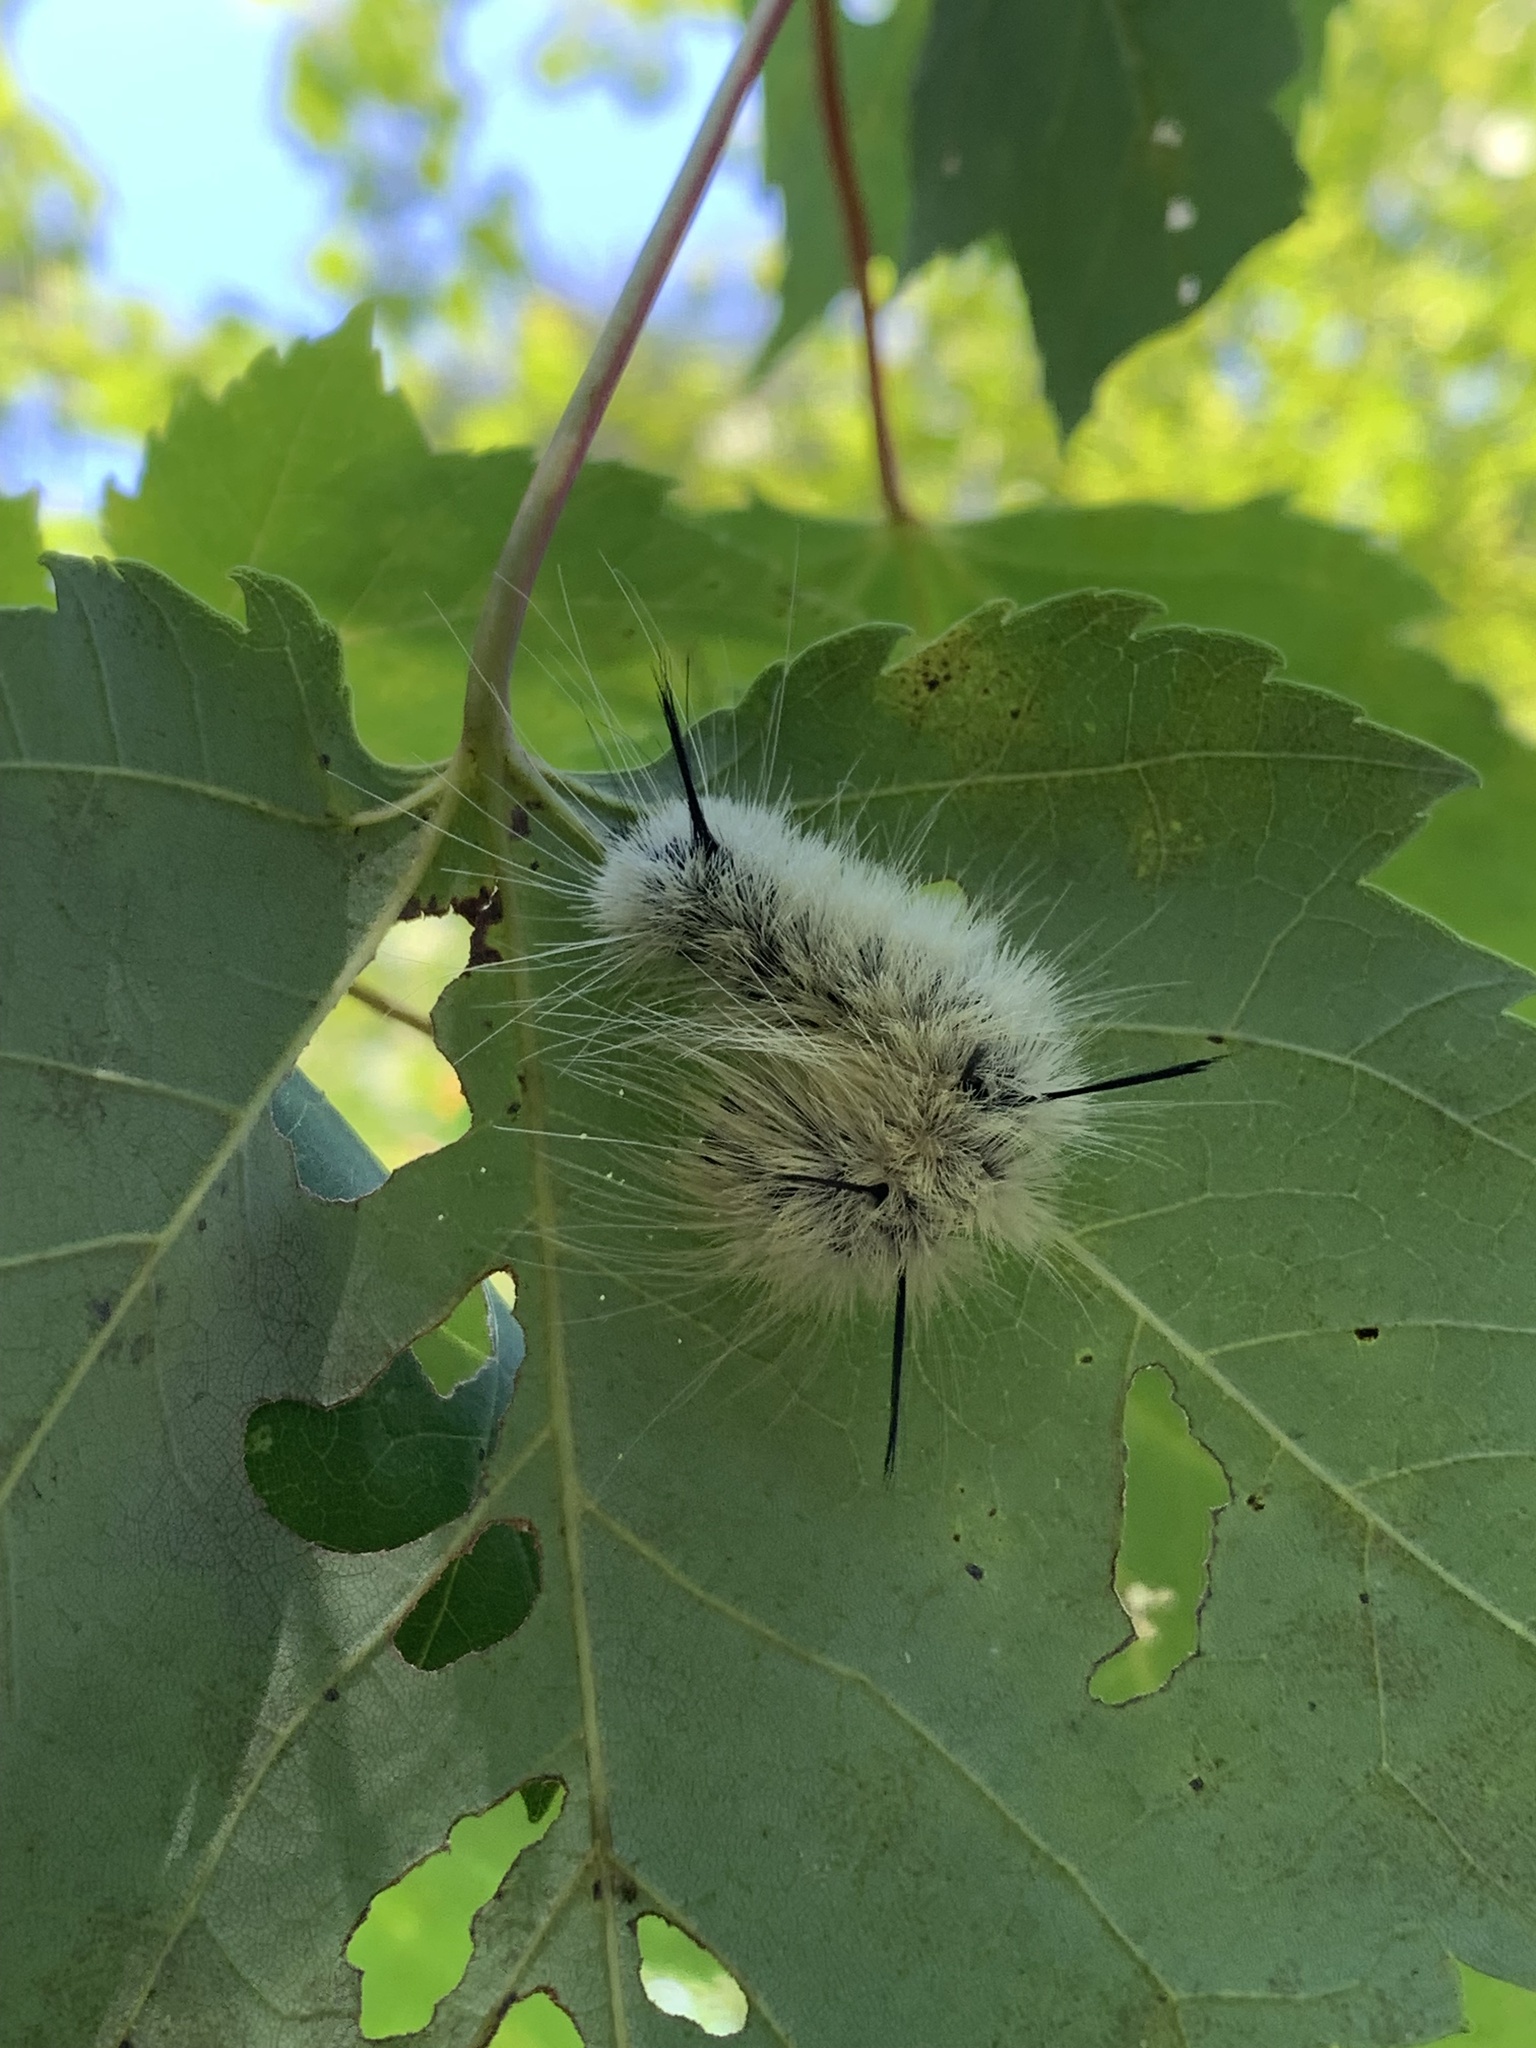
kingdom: Animalia
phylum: Arthropoda
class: Insecta
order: Lepidoptera
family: Noctuidae
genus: Acronicta
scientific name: Acronicta americana
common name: American dagger
